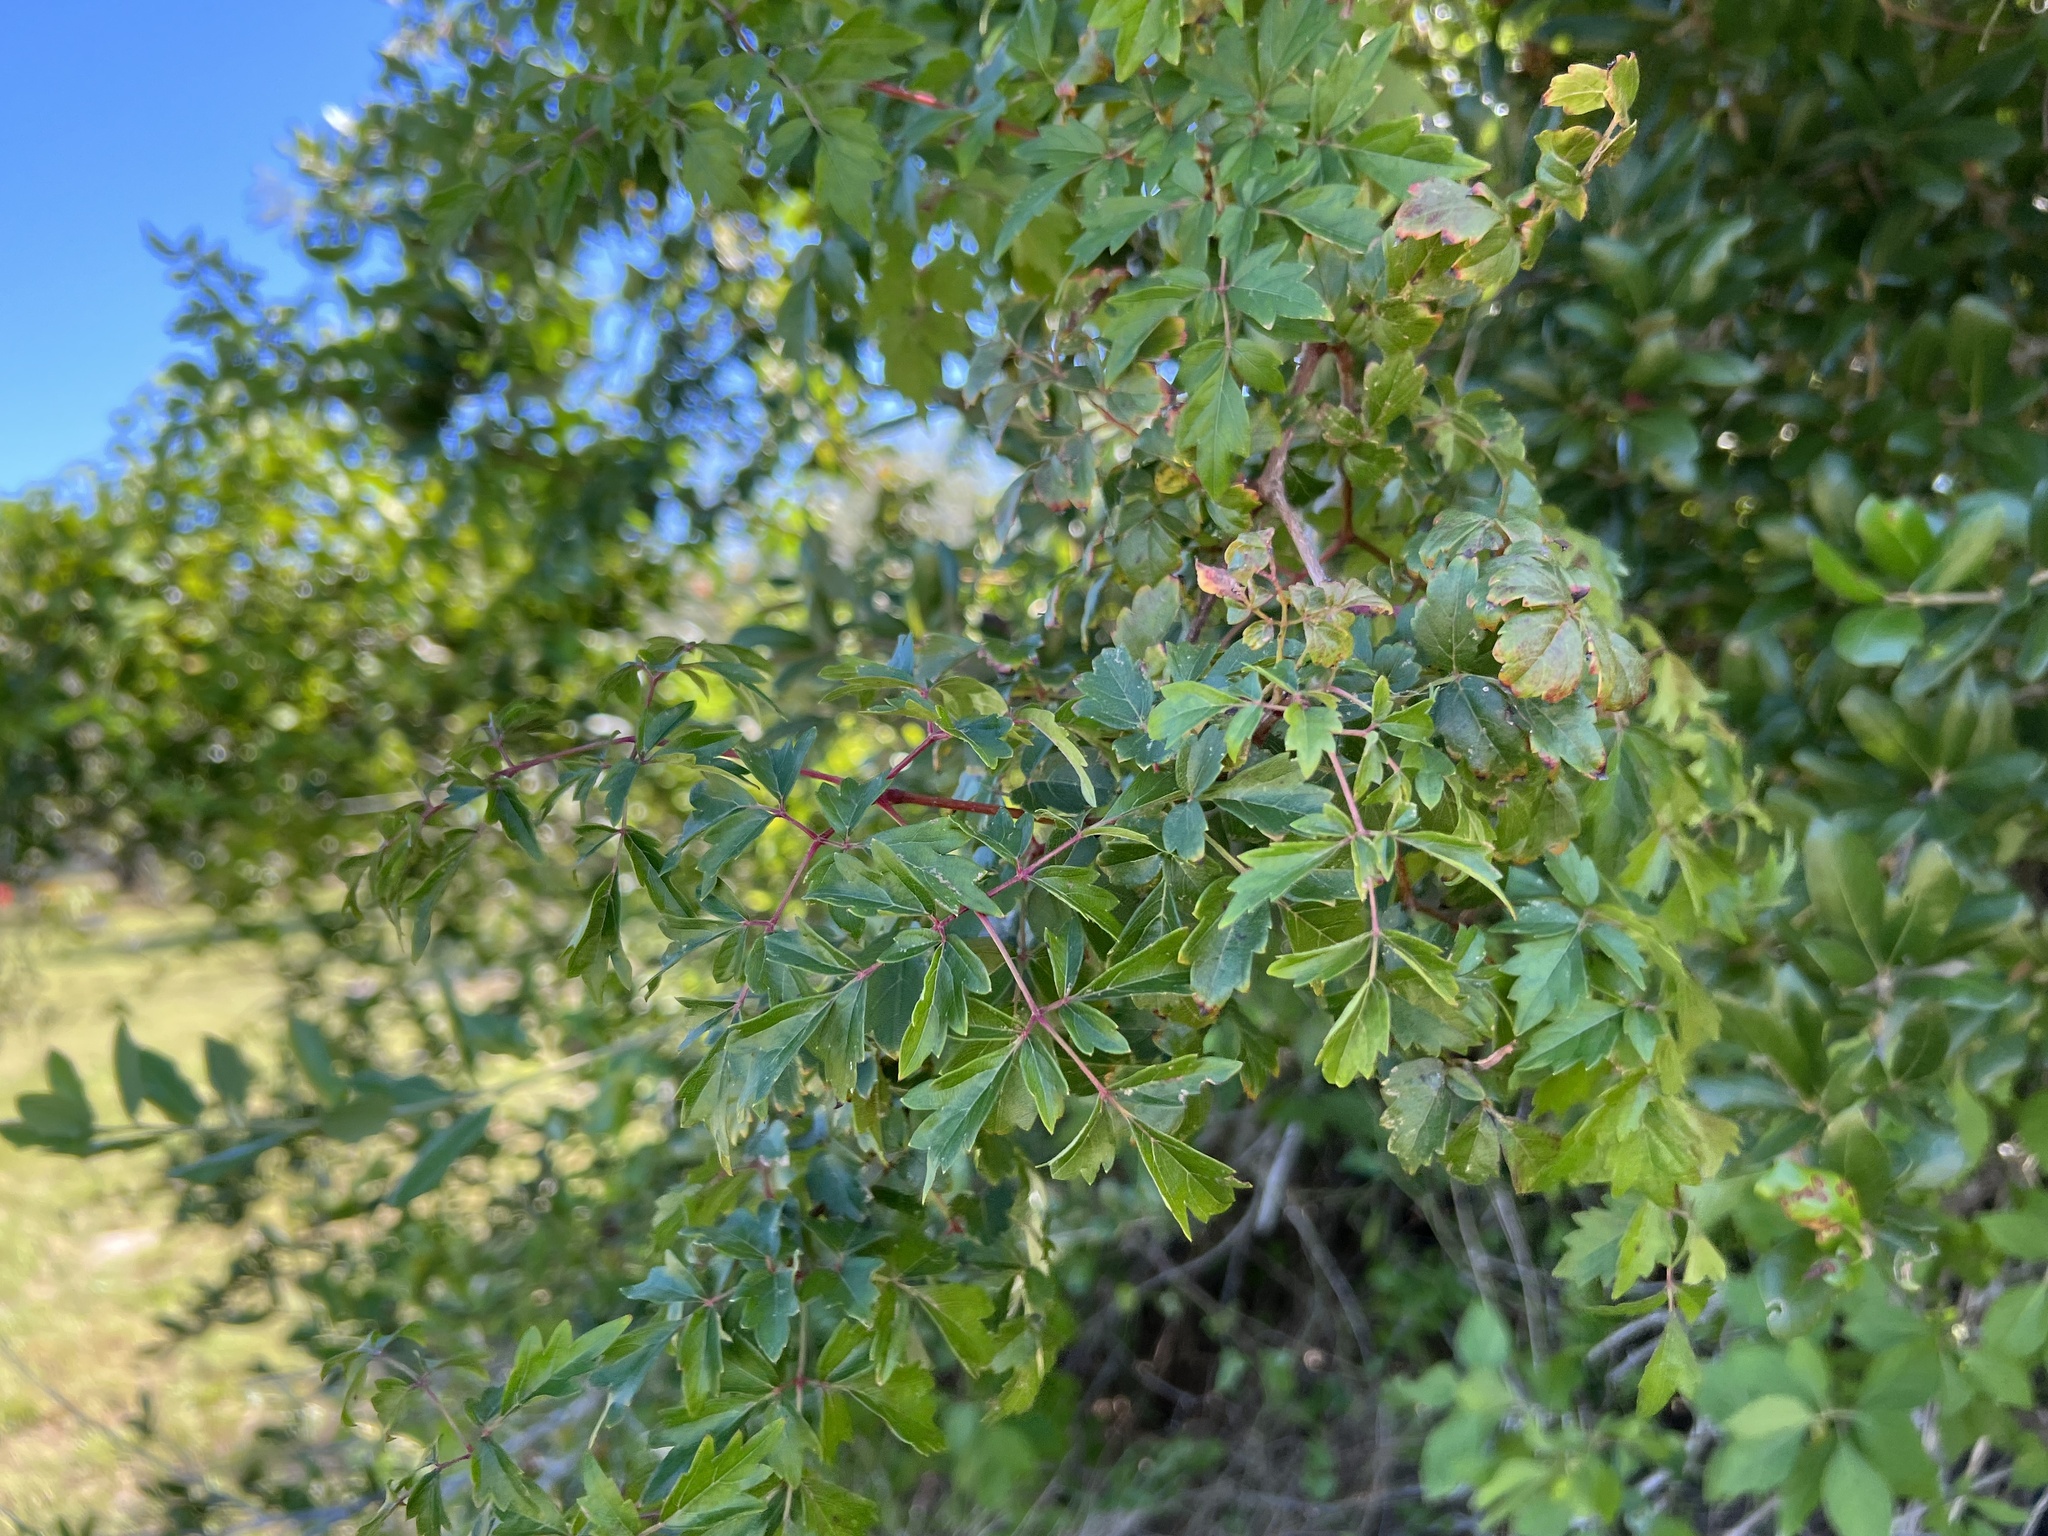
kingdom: Plantae
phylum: Tracheophyta
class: Magnoliopsida
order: Vitales
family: Vitaceae
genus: Nekemias
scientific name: Nekemias arborea
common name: Peppervine
